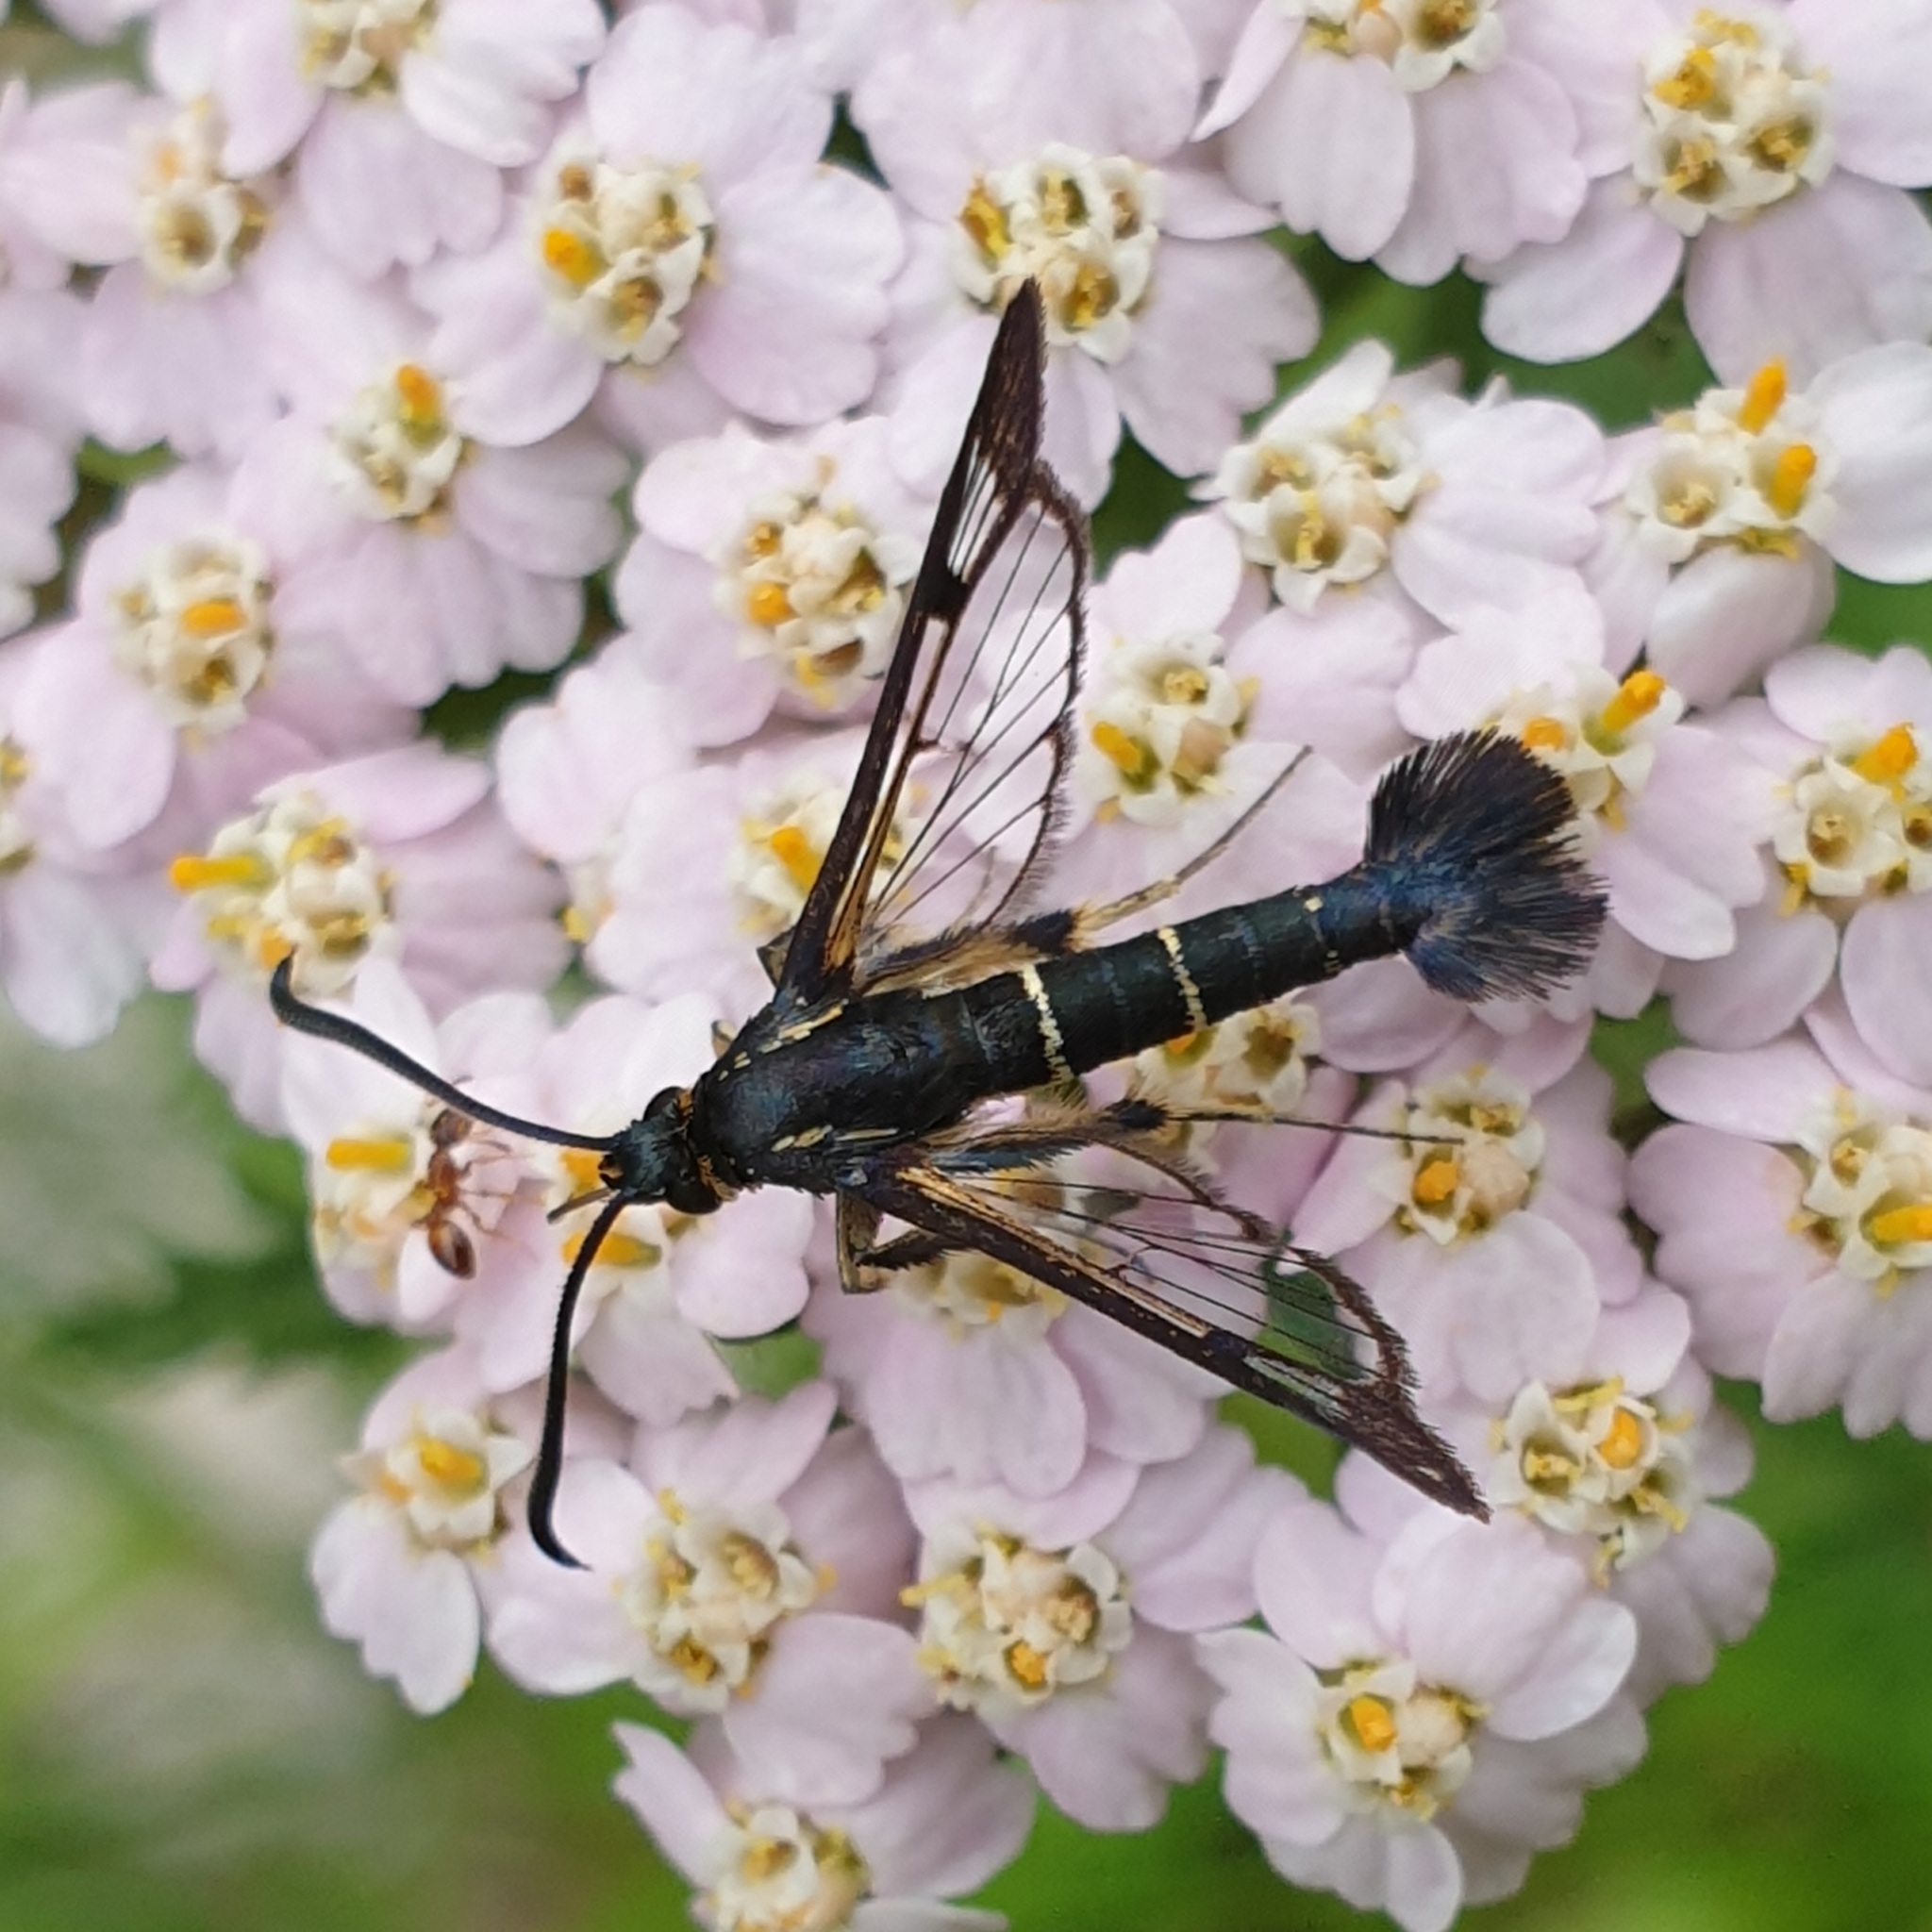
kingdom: Animalia
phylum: Arthropoda
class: Insecta
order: Lepidoptera
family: Sesiidae
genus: Synanthedon
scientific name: Synanthedon spuleri
